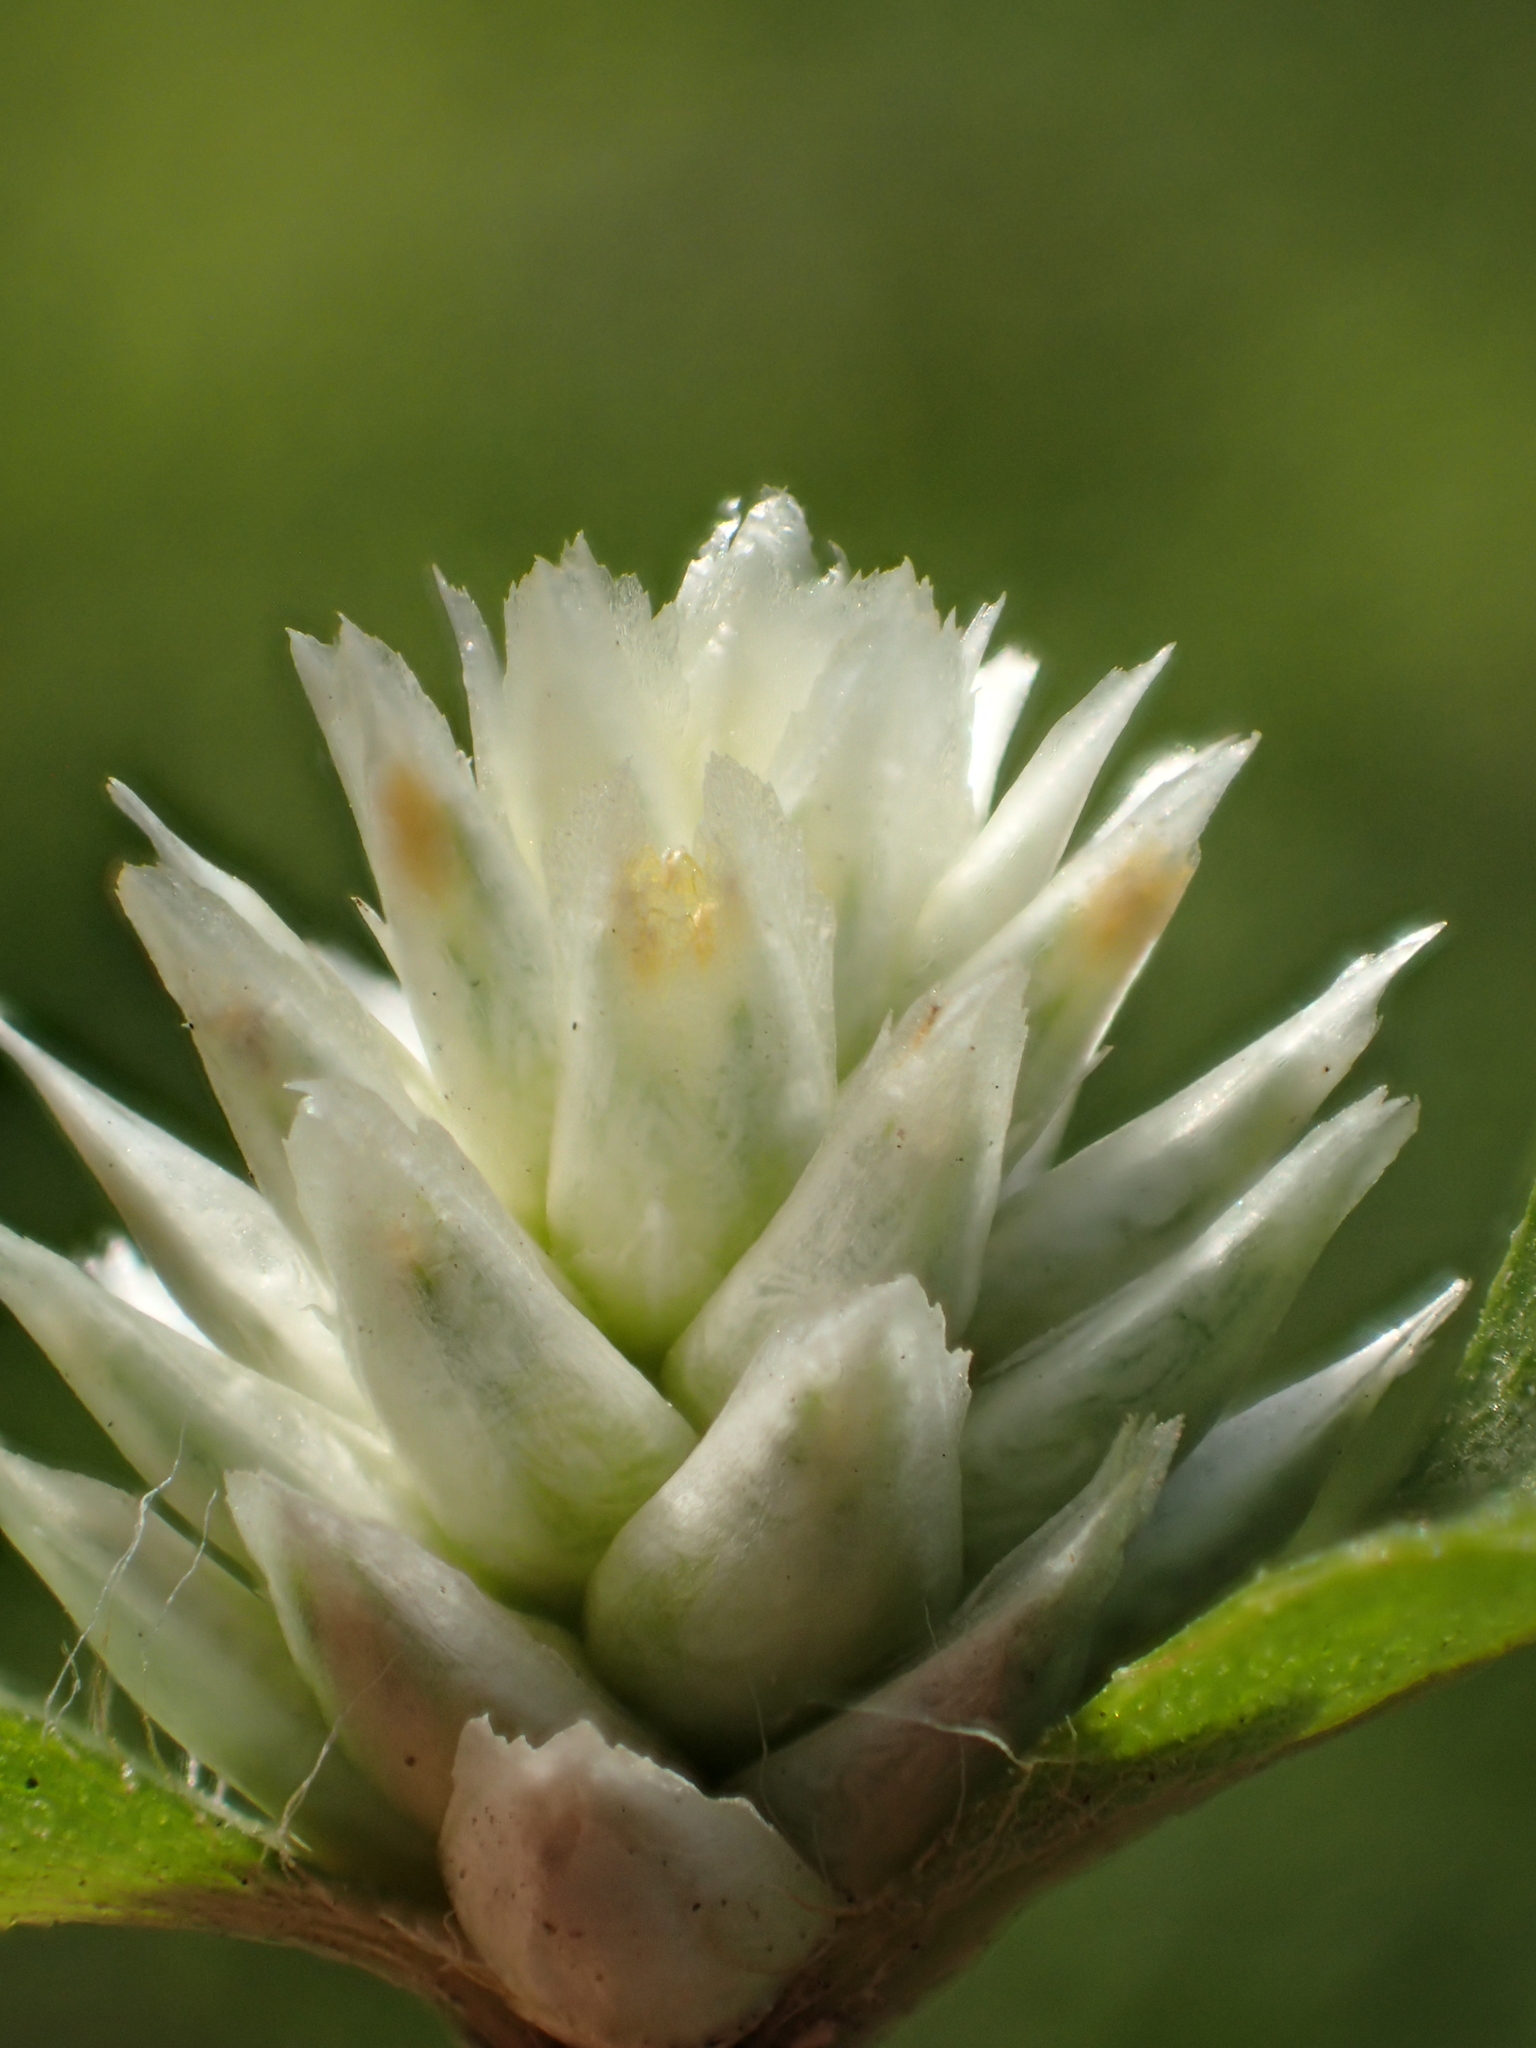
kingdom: Plantae
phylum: Tracheophyta
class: Magnoliopsida
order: Caryophyllales
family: Amaranthaceae
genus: Gomphrena
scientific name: Gomphrena serrata
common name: Arrasa con todo
